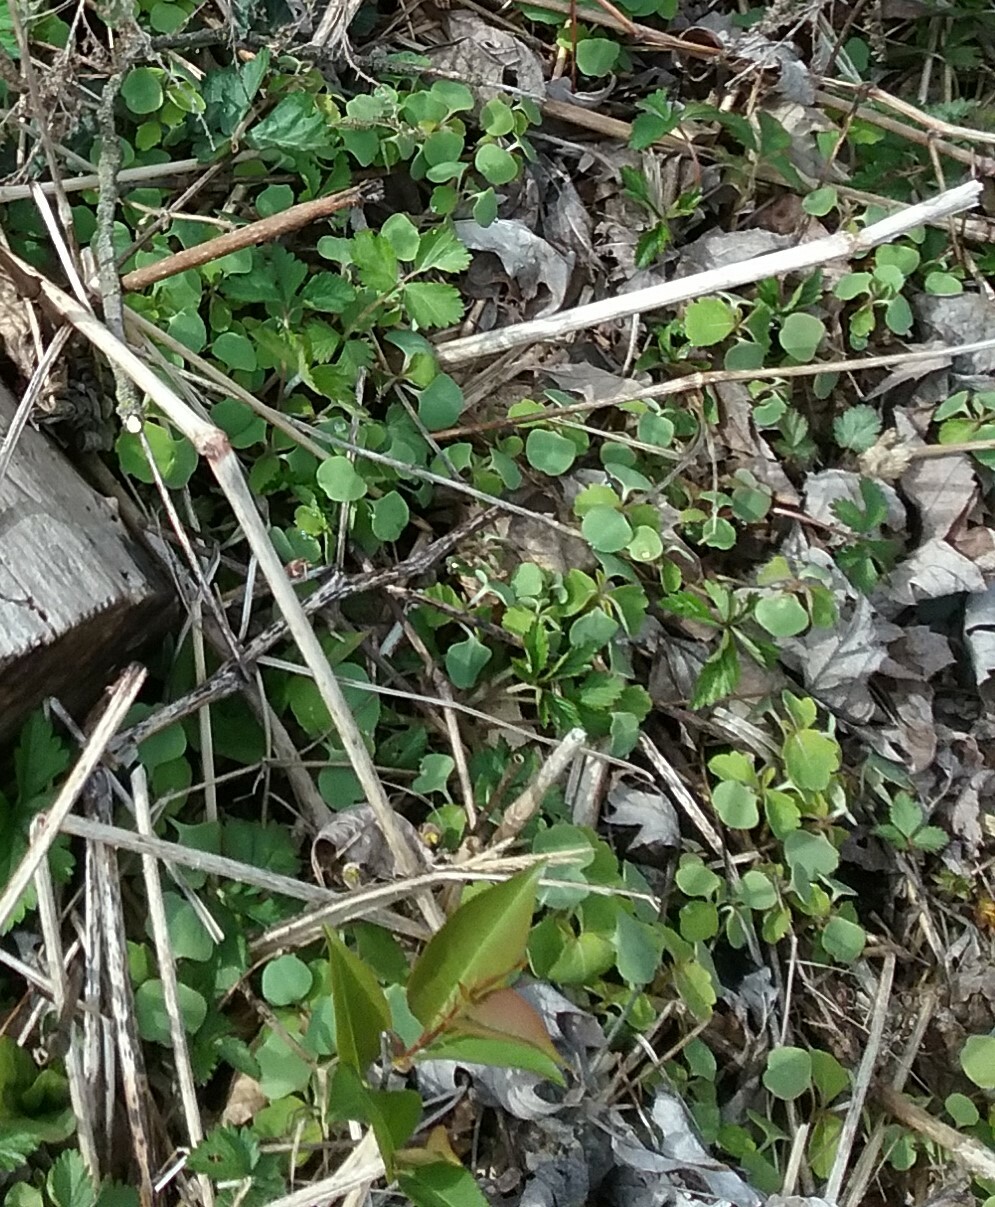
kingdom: Plantae
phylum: Tracheophyta
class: Magnoliopsida
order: Ericales
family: Balsaminaceae
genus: Impatiens
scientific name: Impatiens capensis
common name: Orange balsam
